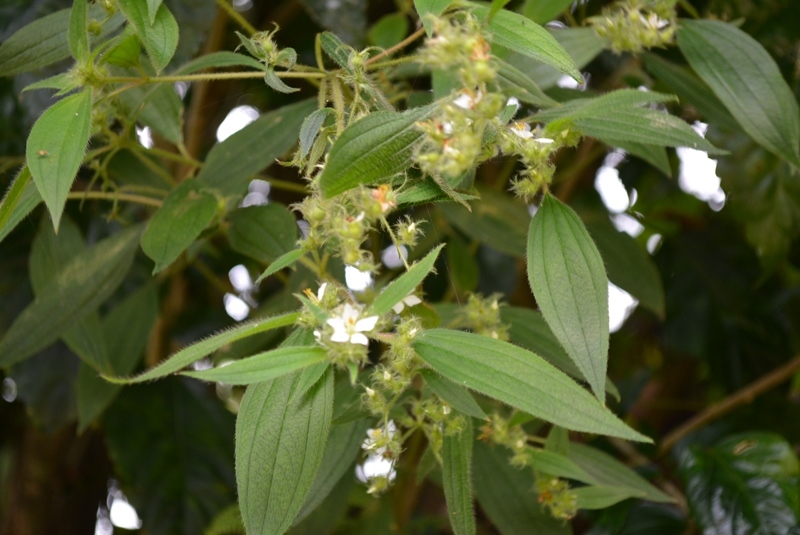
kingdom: Plantae
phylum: Tracheophyta
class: Magnoliopsida
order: Myrtales
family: Melastomataceae
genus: Chaetogastra
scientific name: Chaetogastra longifolia
